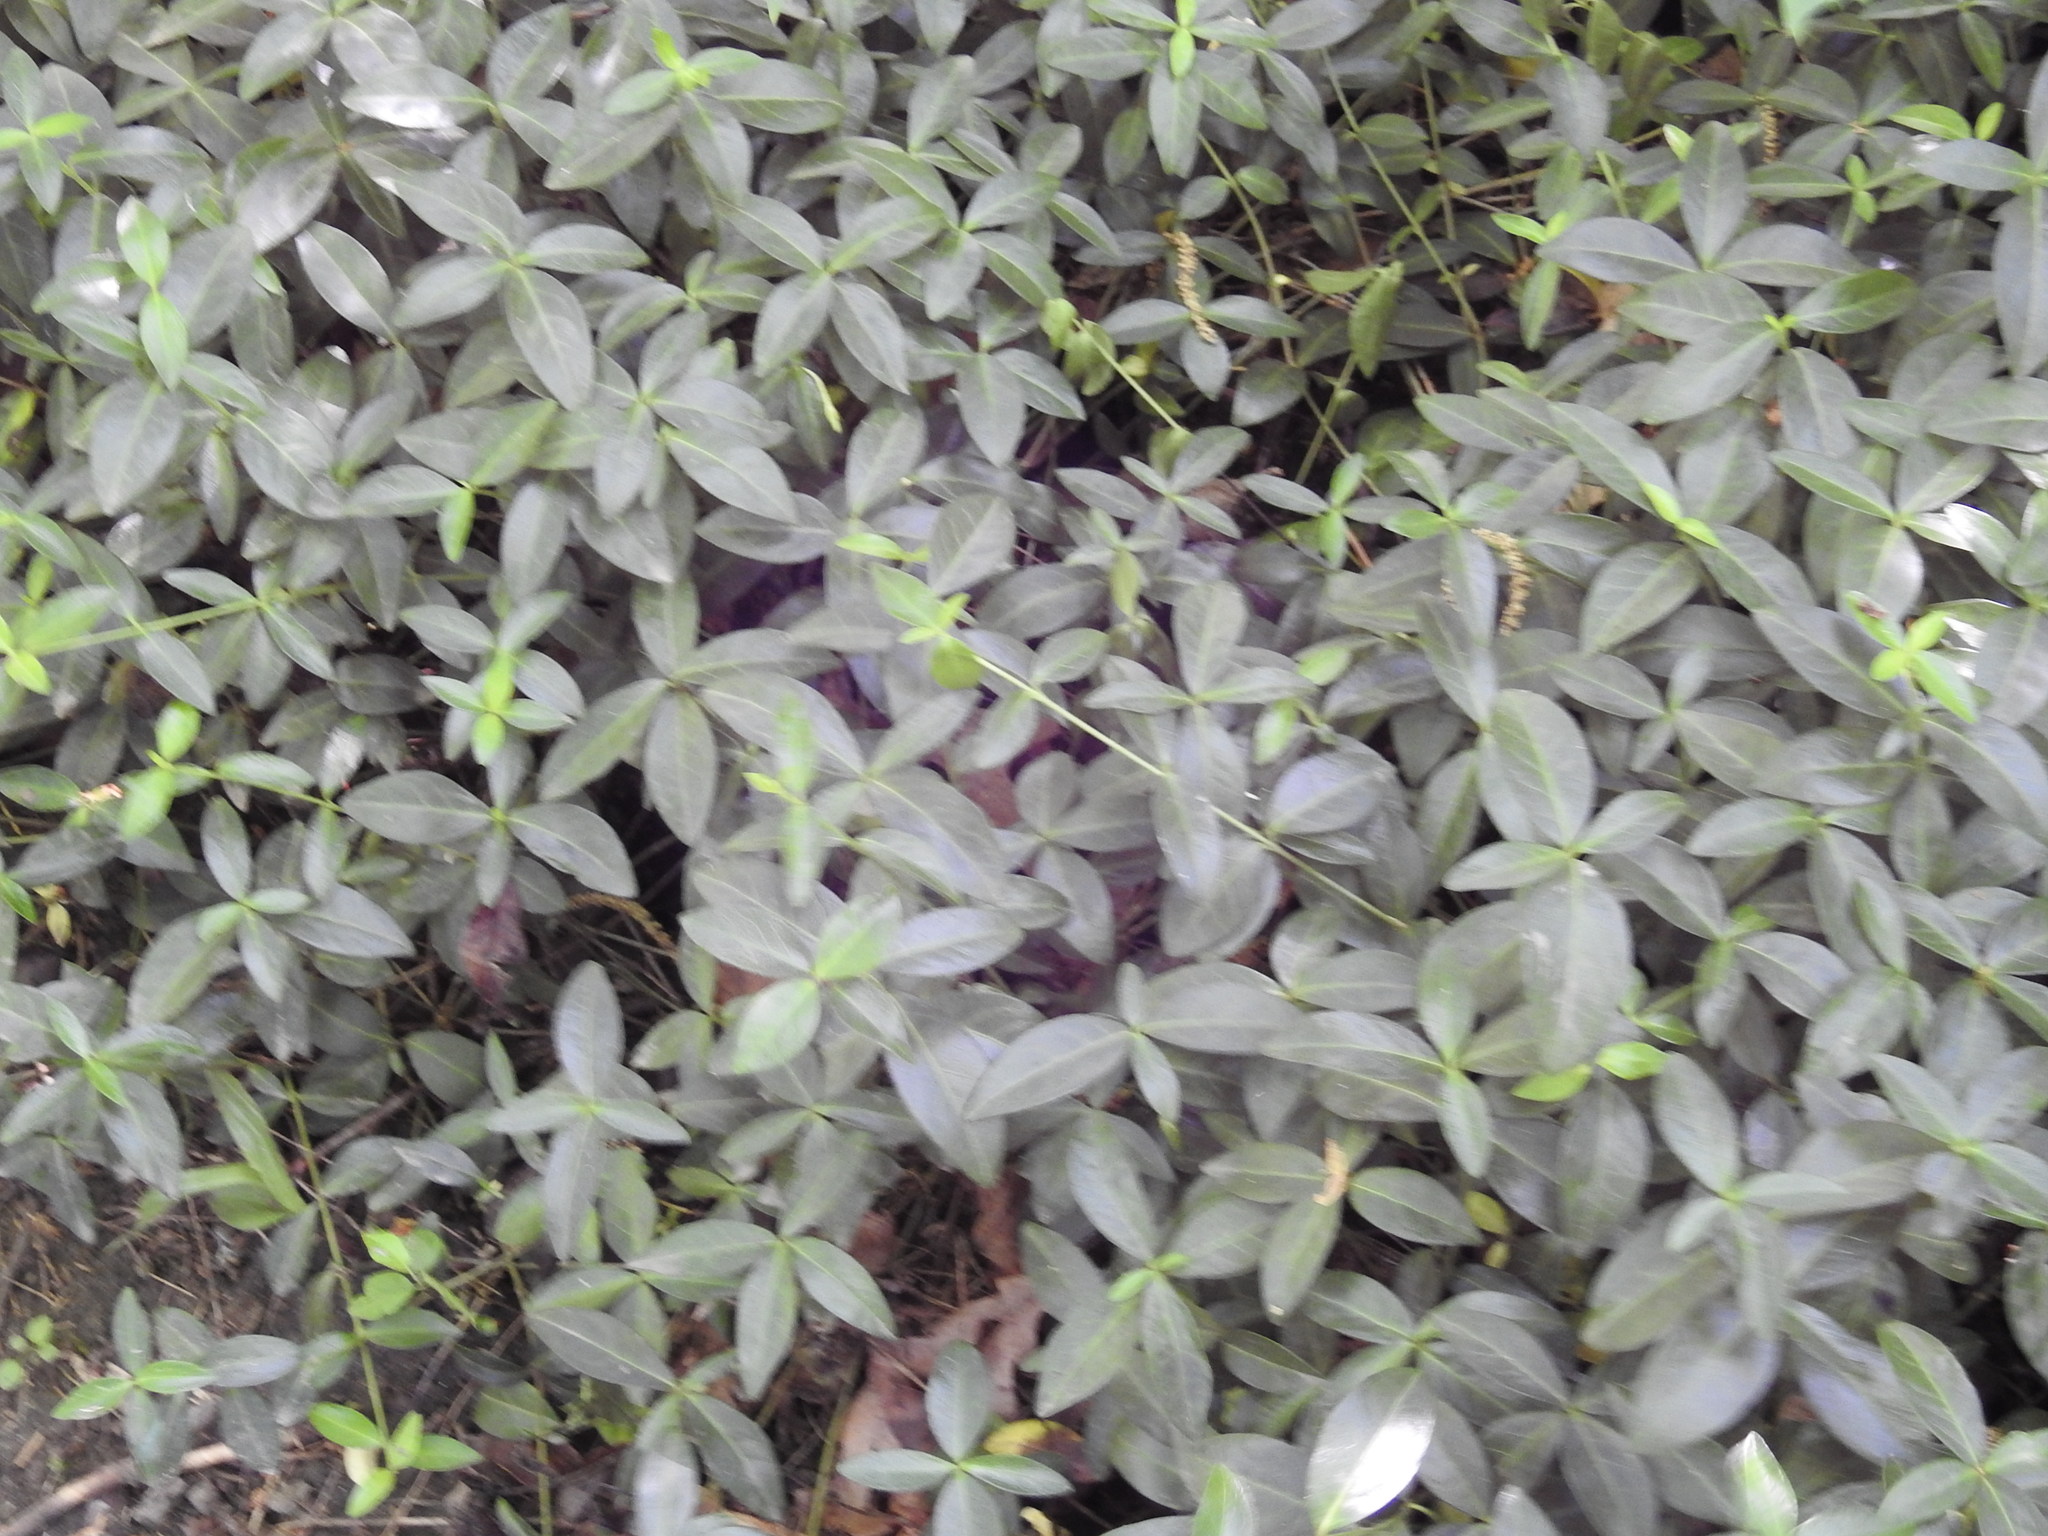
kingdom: Plantae
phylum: Tracheophyta
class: Magnoliopsida
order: Gentianales
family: Apocynaceae
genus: Vinca
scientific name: Vinca minor
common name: Lesser periwinkle
